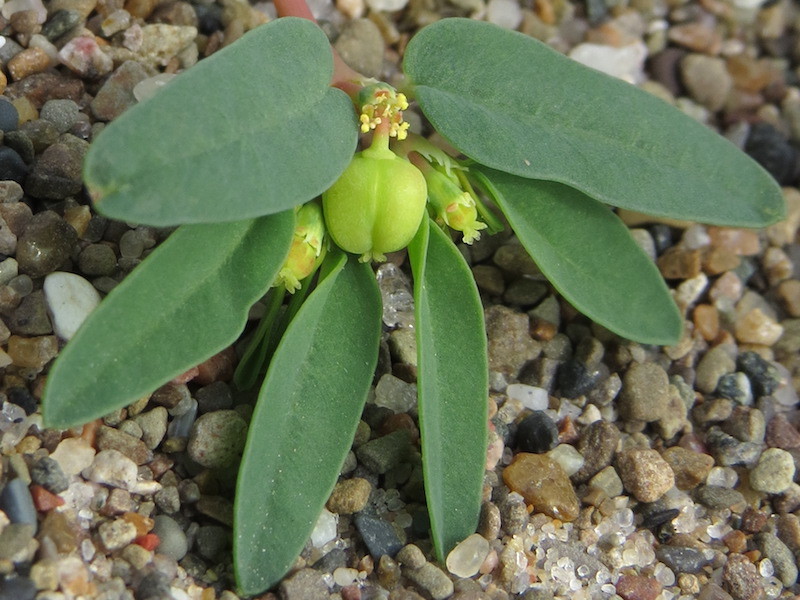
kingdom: Plantae
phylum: Tracheophyta
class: Magnoliopsida
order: Malpighiales
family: Euphorbiaceae
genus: Euphorbia
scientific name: Euphorbia polygonifolia
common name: Knotweed spurge
